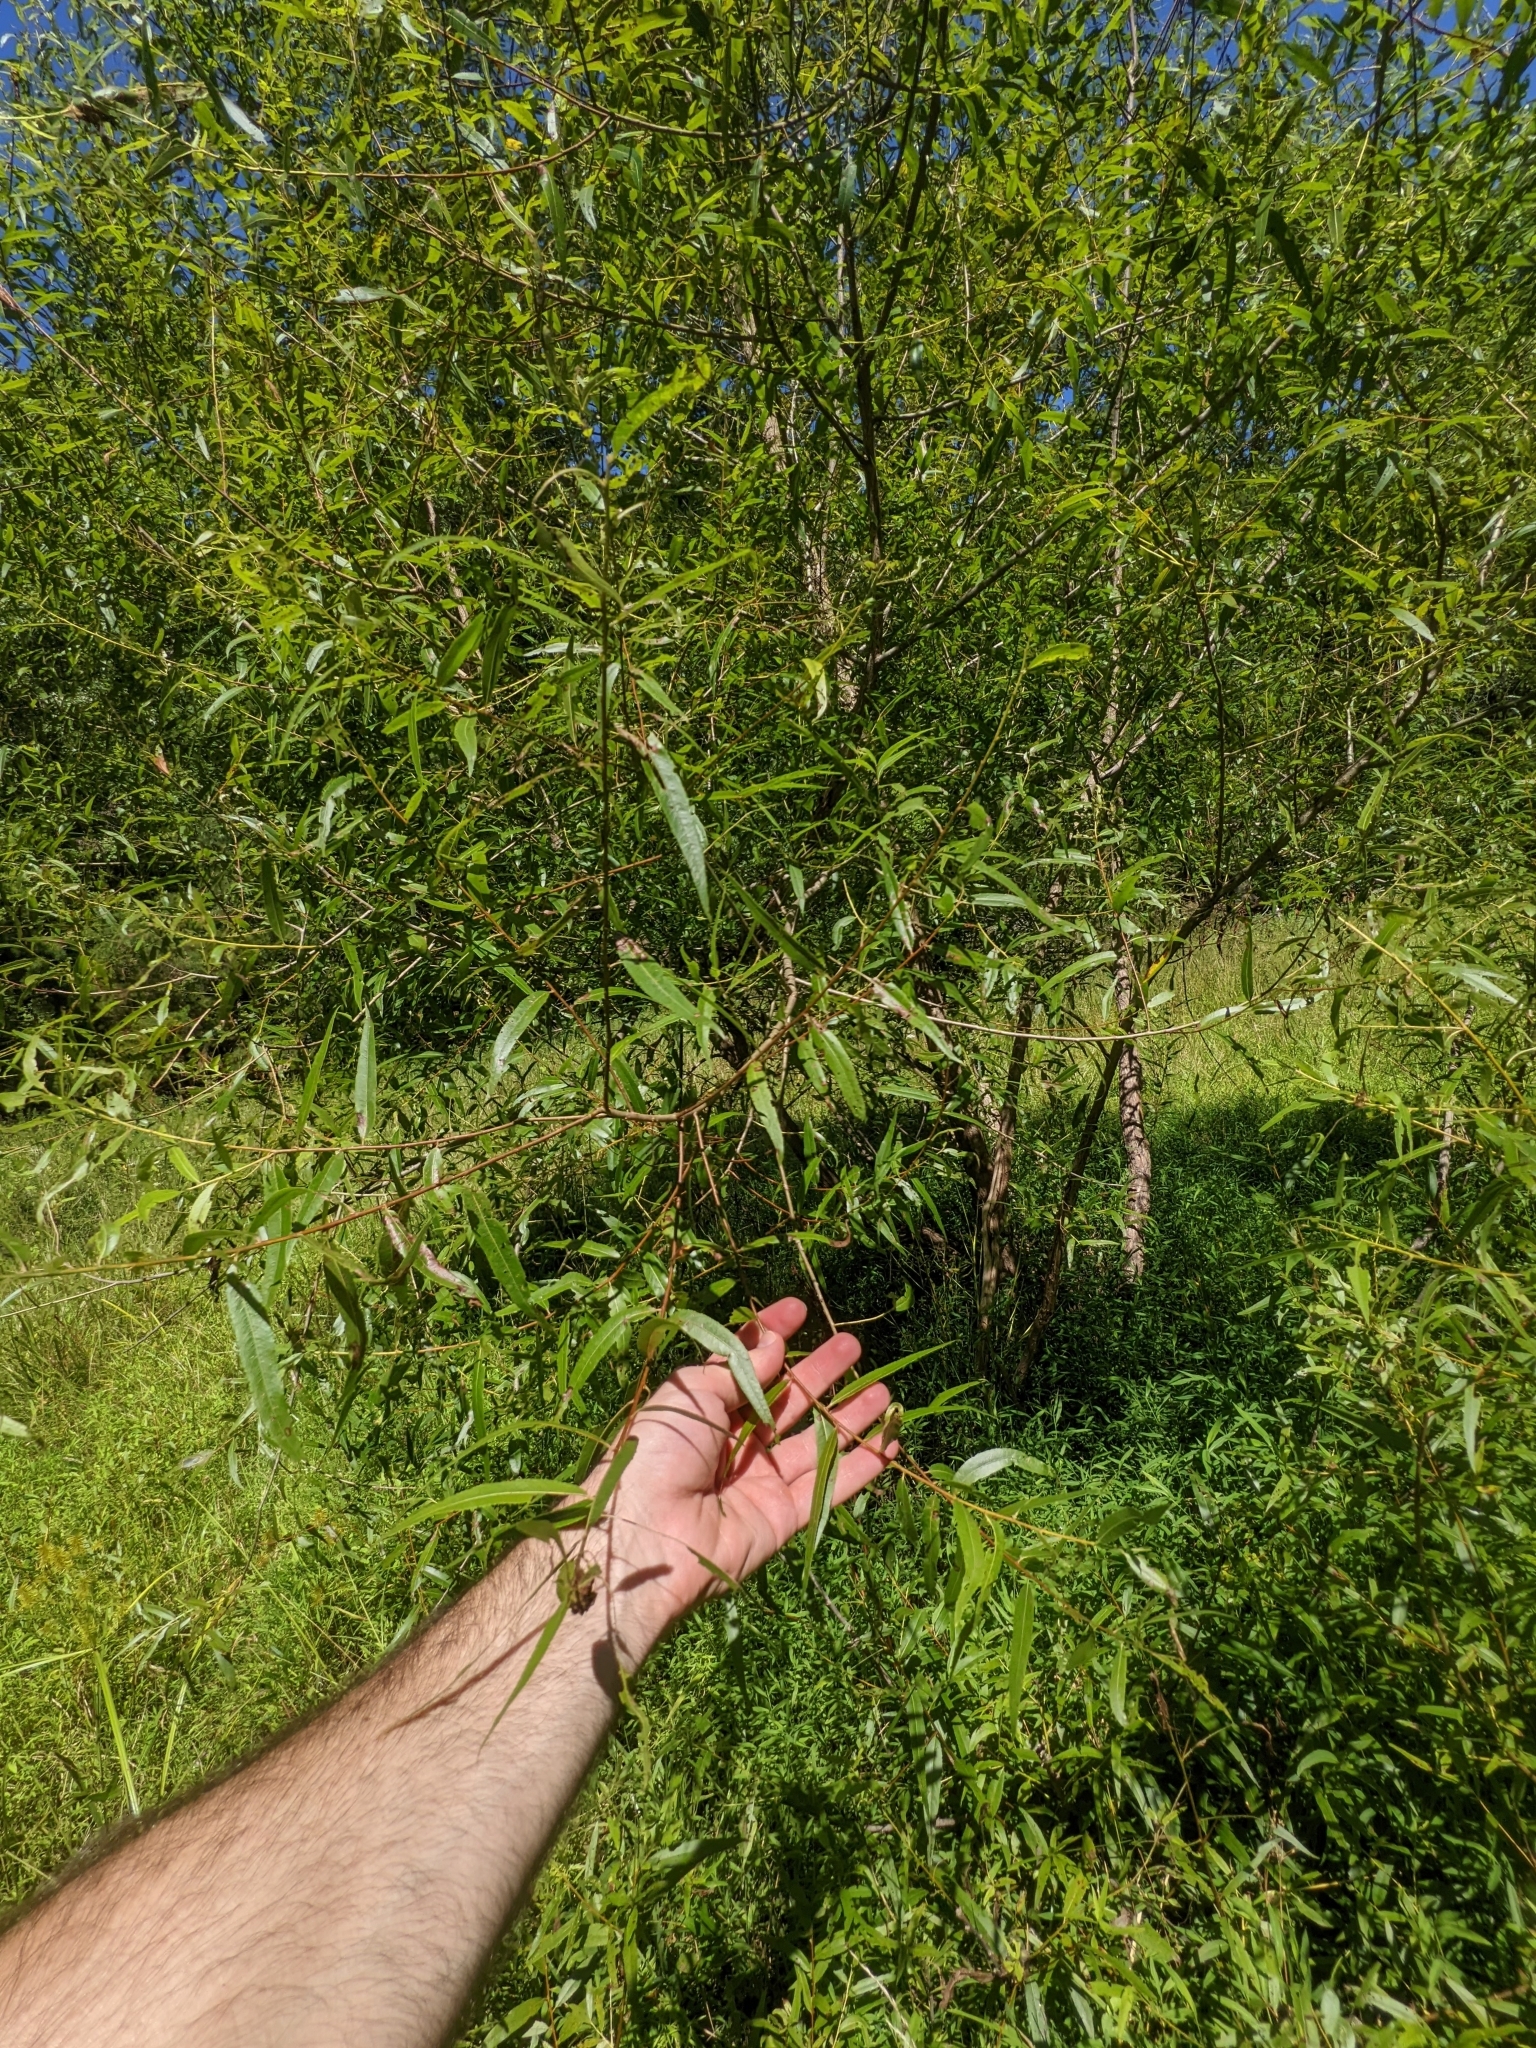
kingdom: Plantae
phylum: Tracheophyta
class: Magnoliopsida
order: Malpighiales
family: Salicaceae
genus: Salix
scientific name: Salix nigra
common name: Black willow
